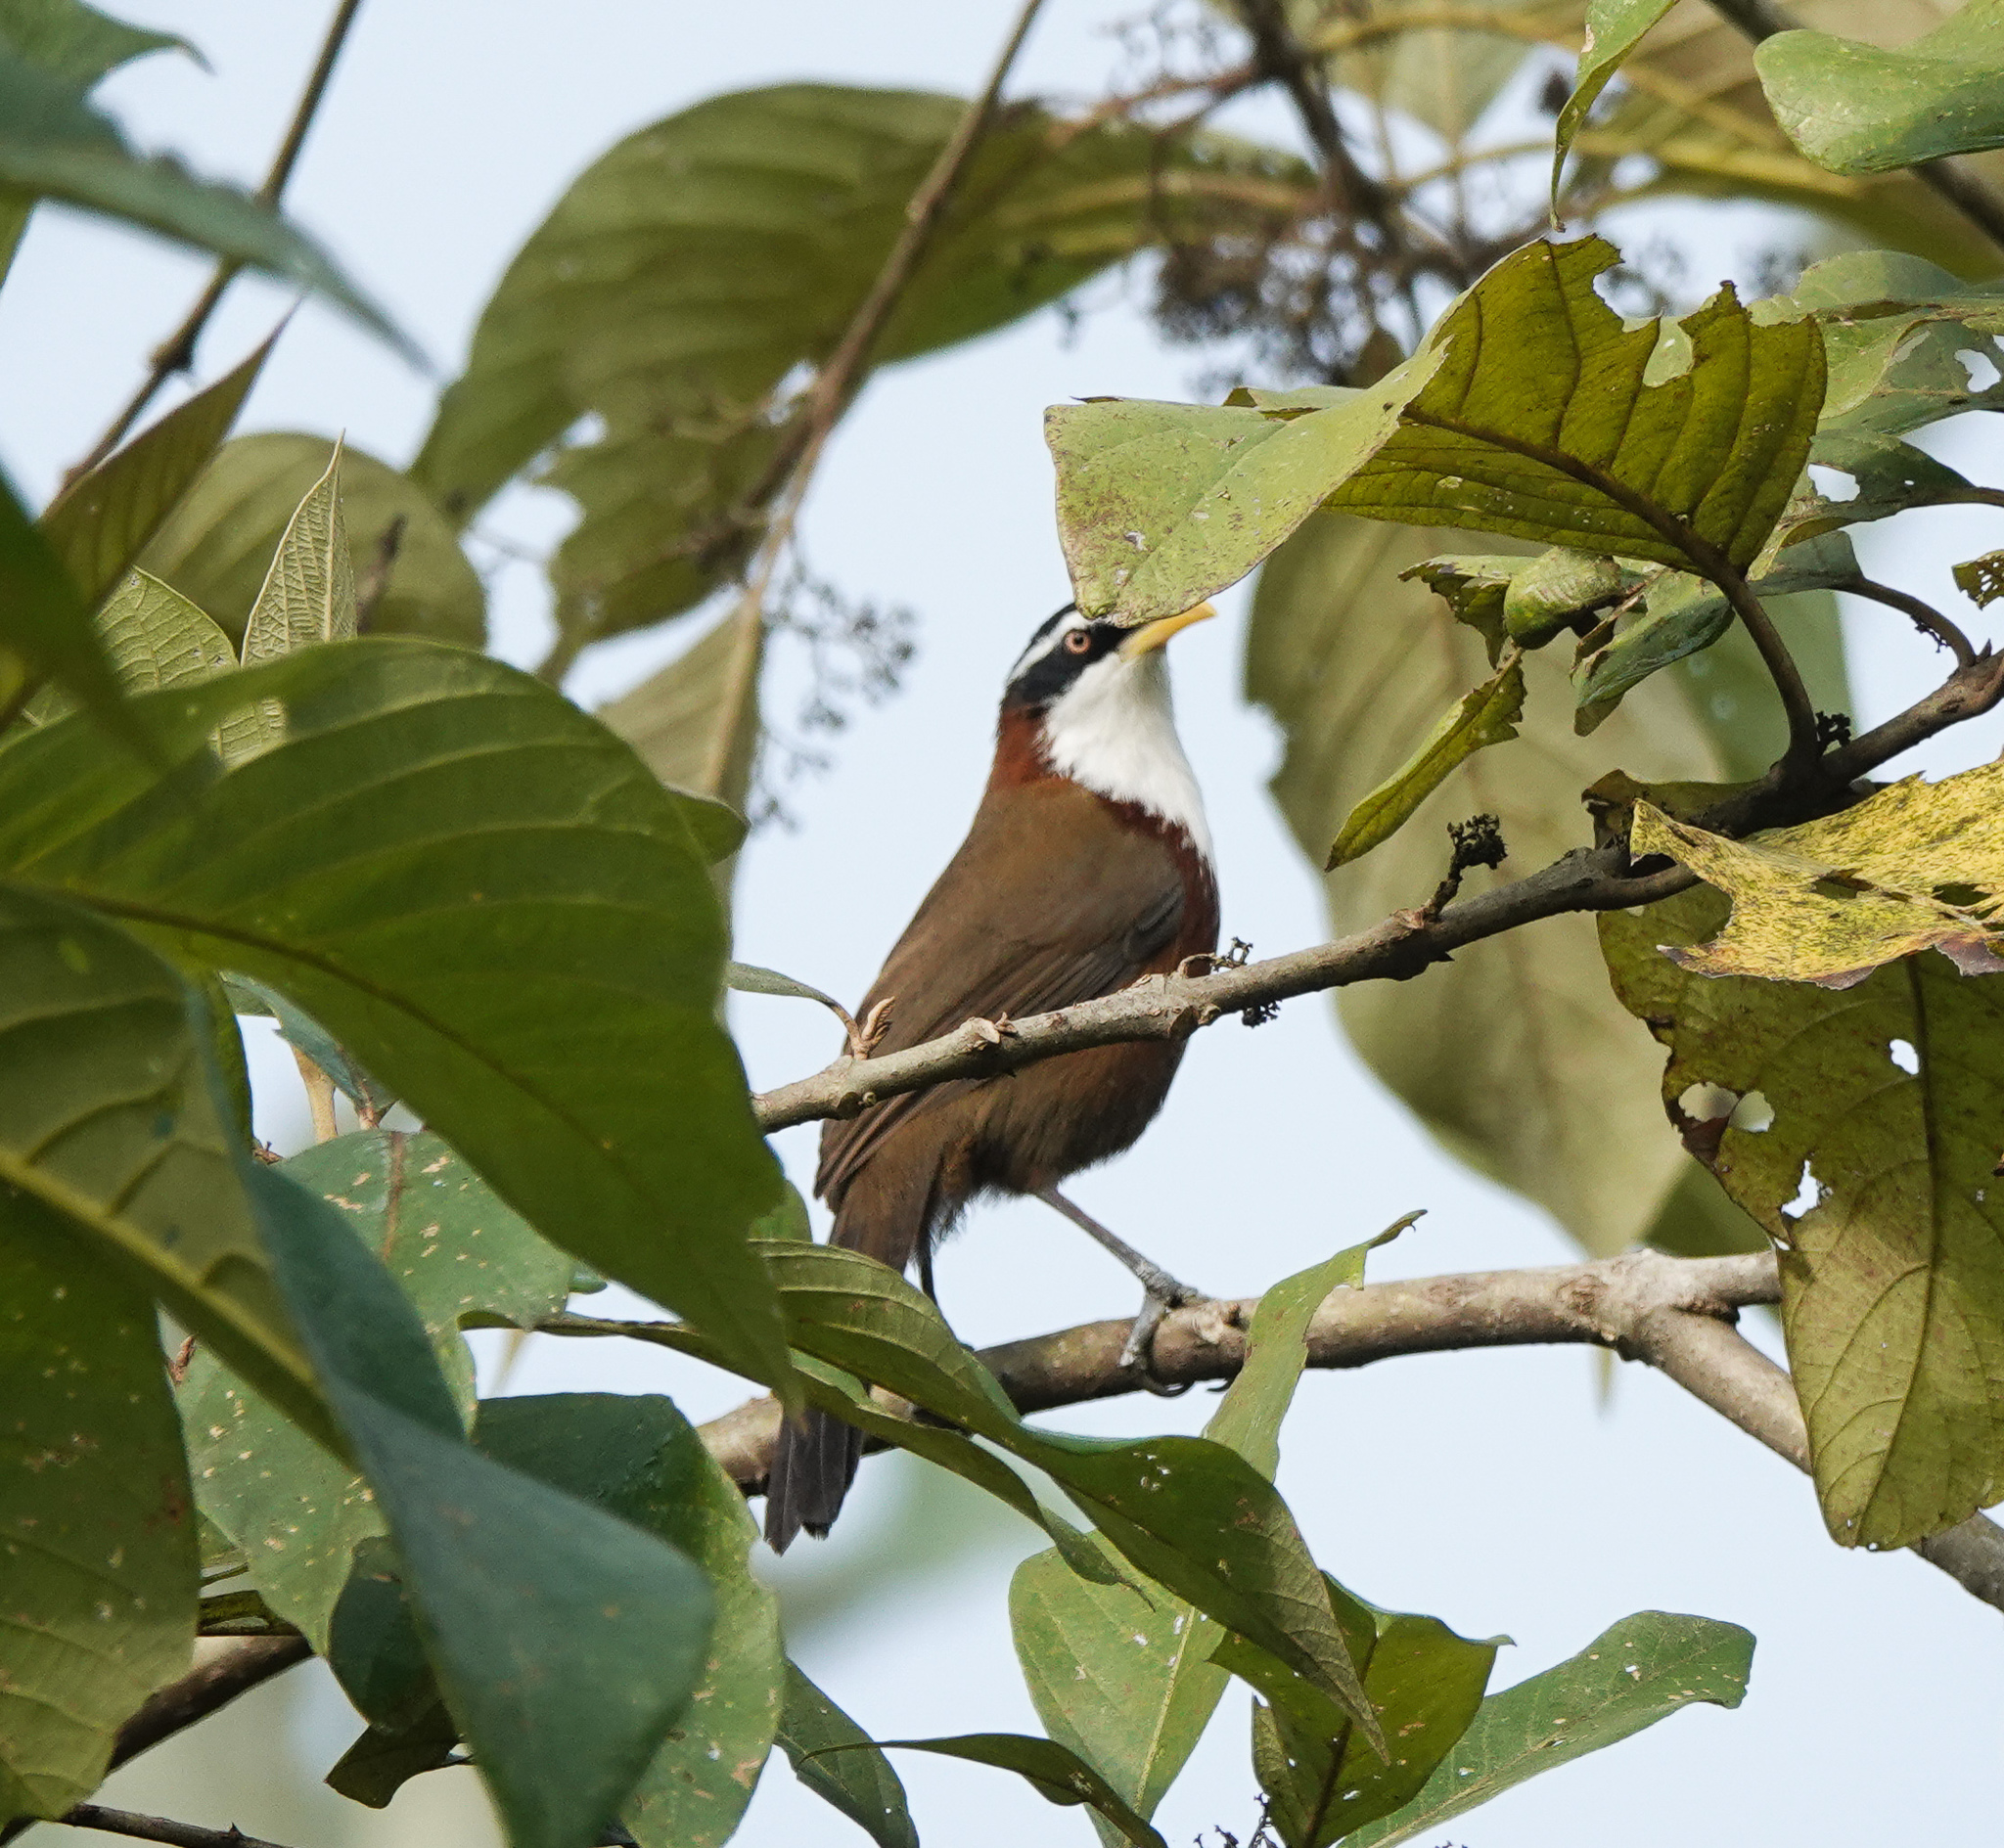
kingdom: Animalia
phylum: Chordata
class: Aves
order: Passeriformes
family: Timaliidae
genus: Pomatorhinus
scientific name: Pomatorhinus schisticeps
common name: White-browed scimitar babbler
